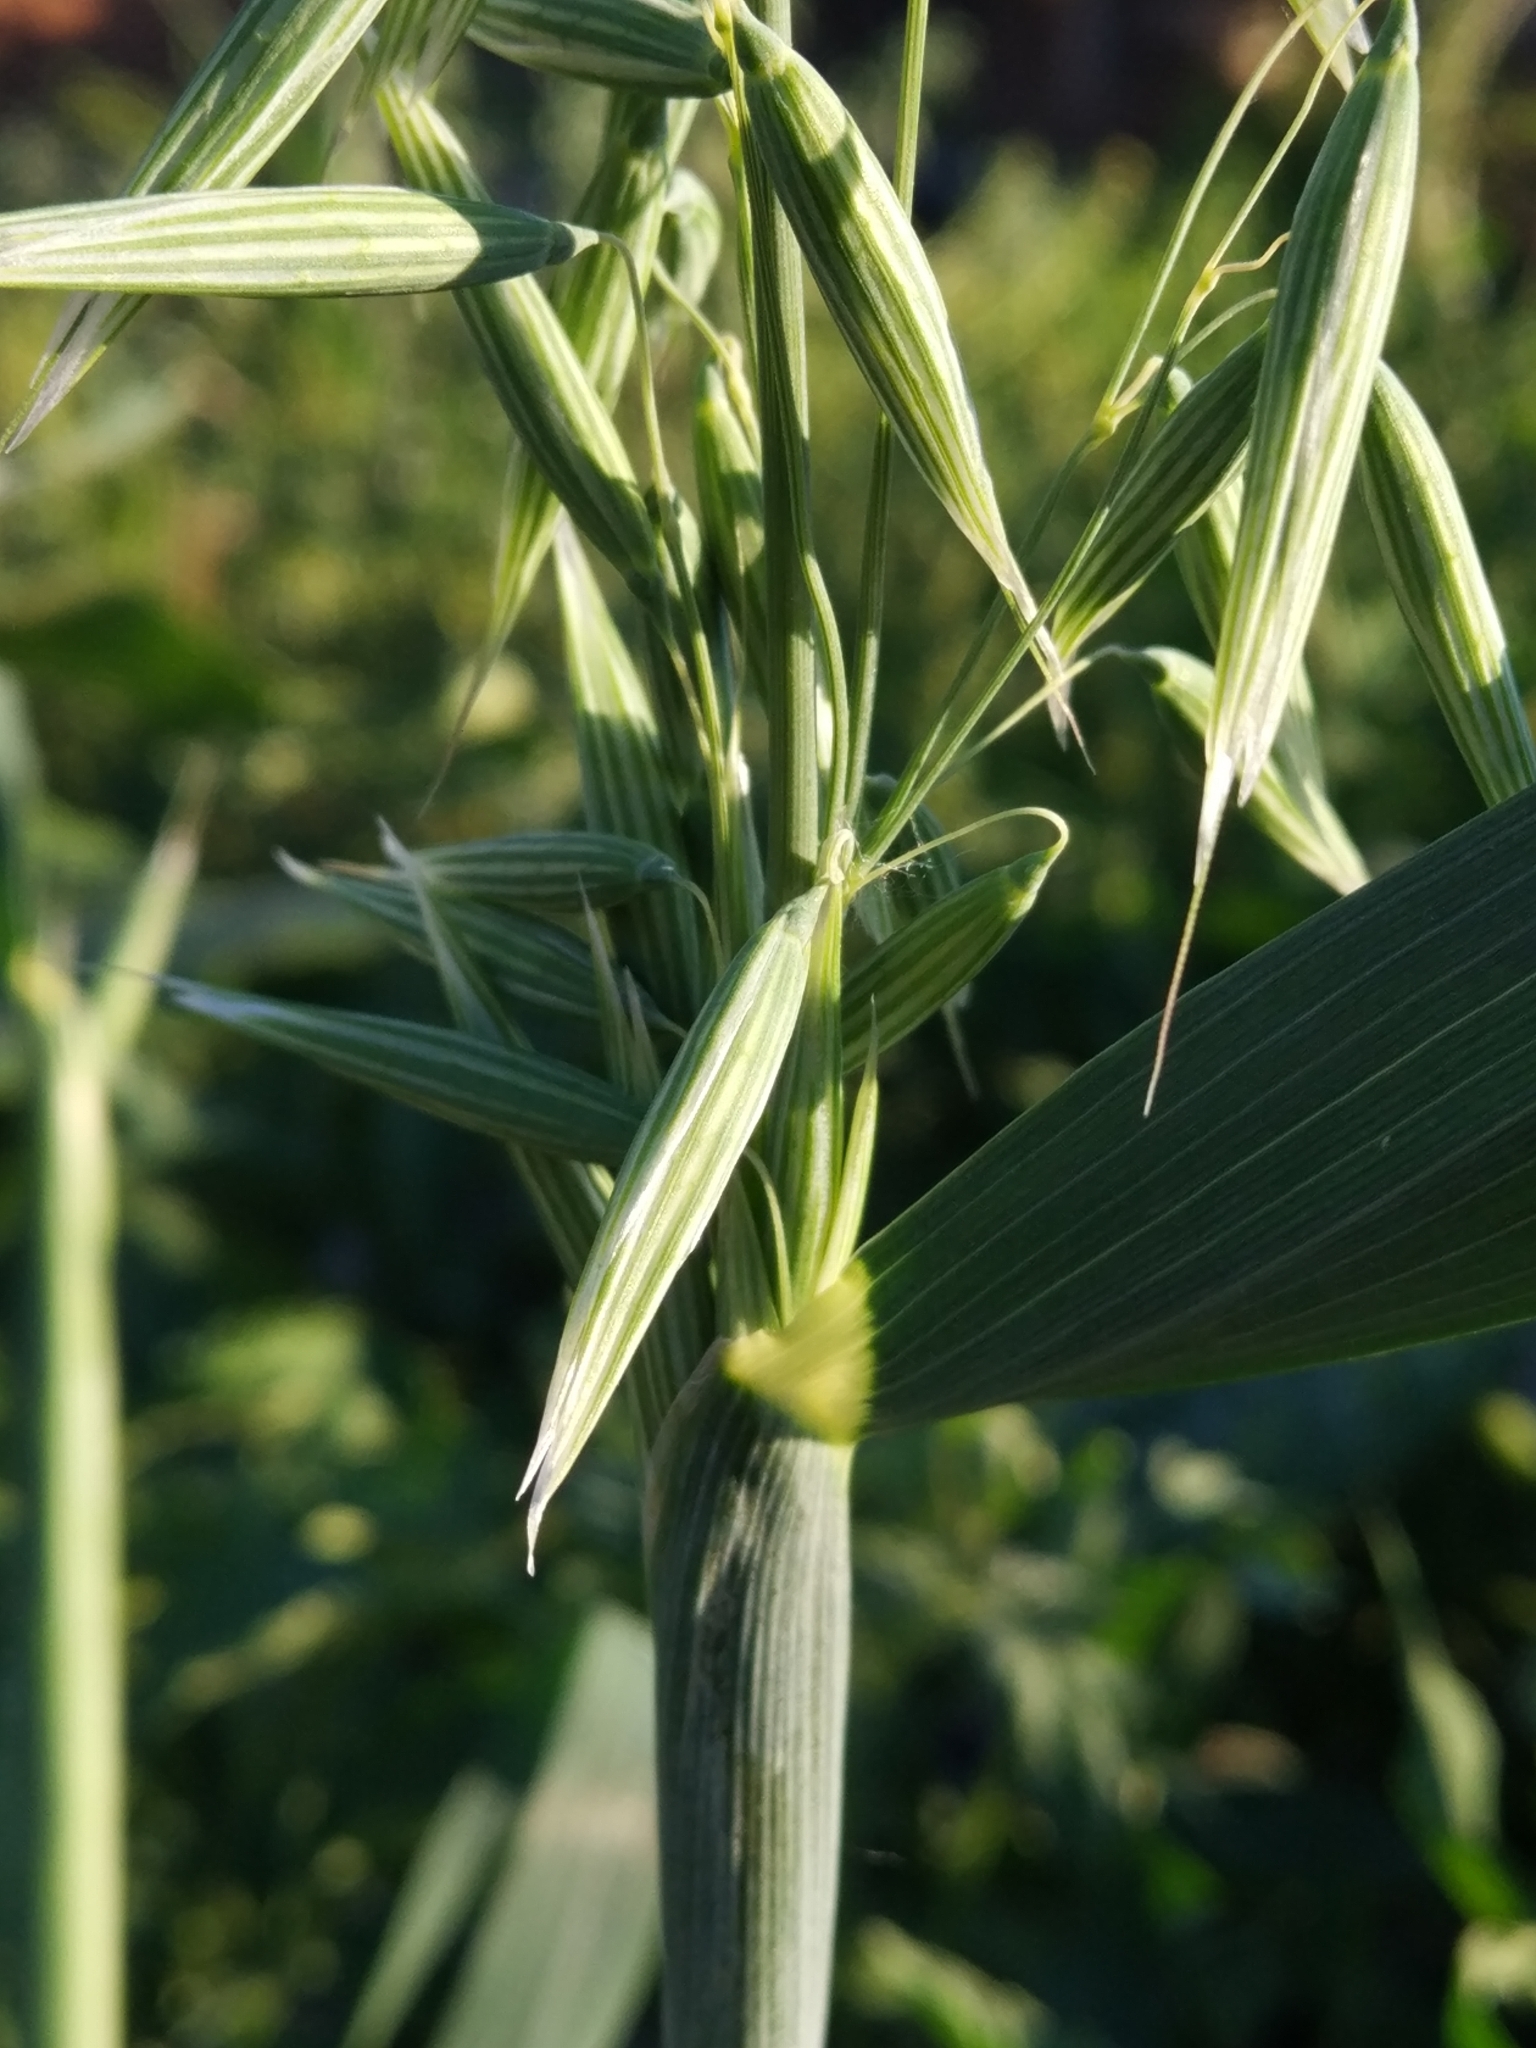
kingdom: Plantae
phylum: Tracheophyta
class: Liliopsida
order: Poales
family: Poaceae
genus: Avena
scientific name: Avena sativa
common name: Oat
